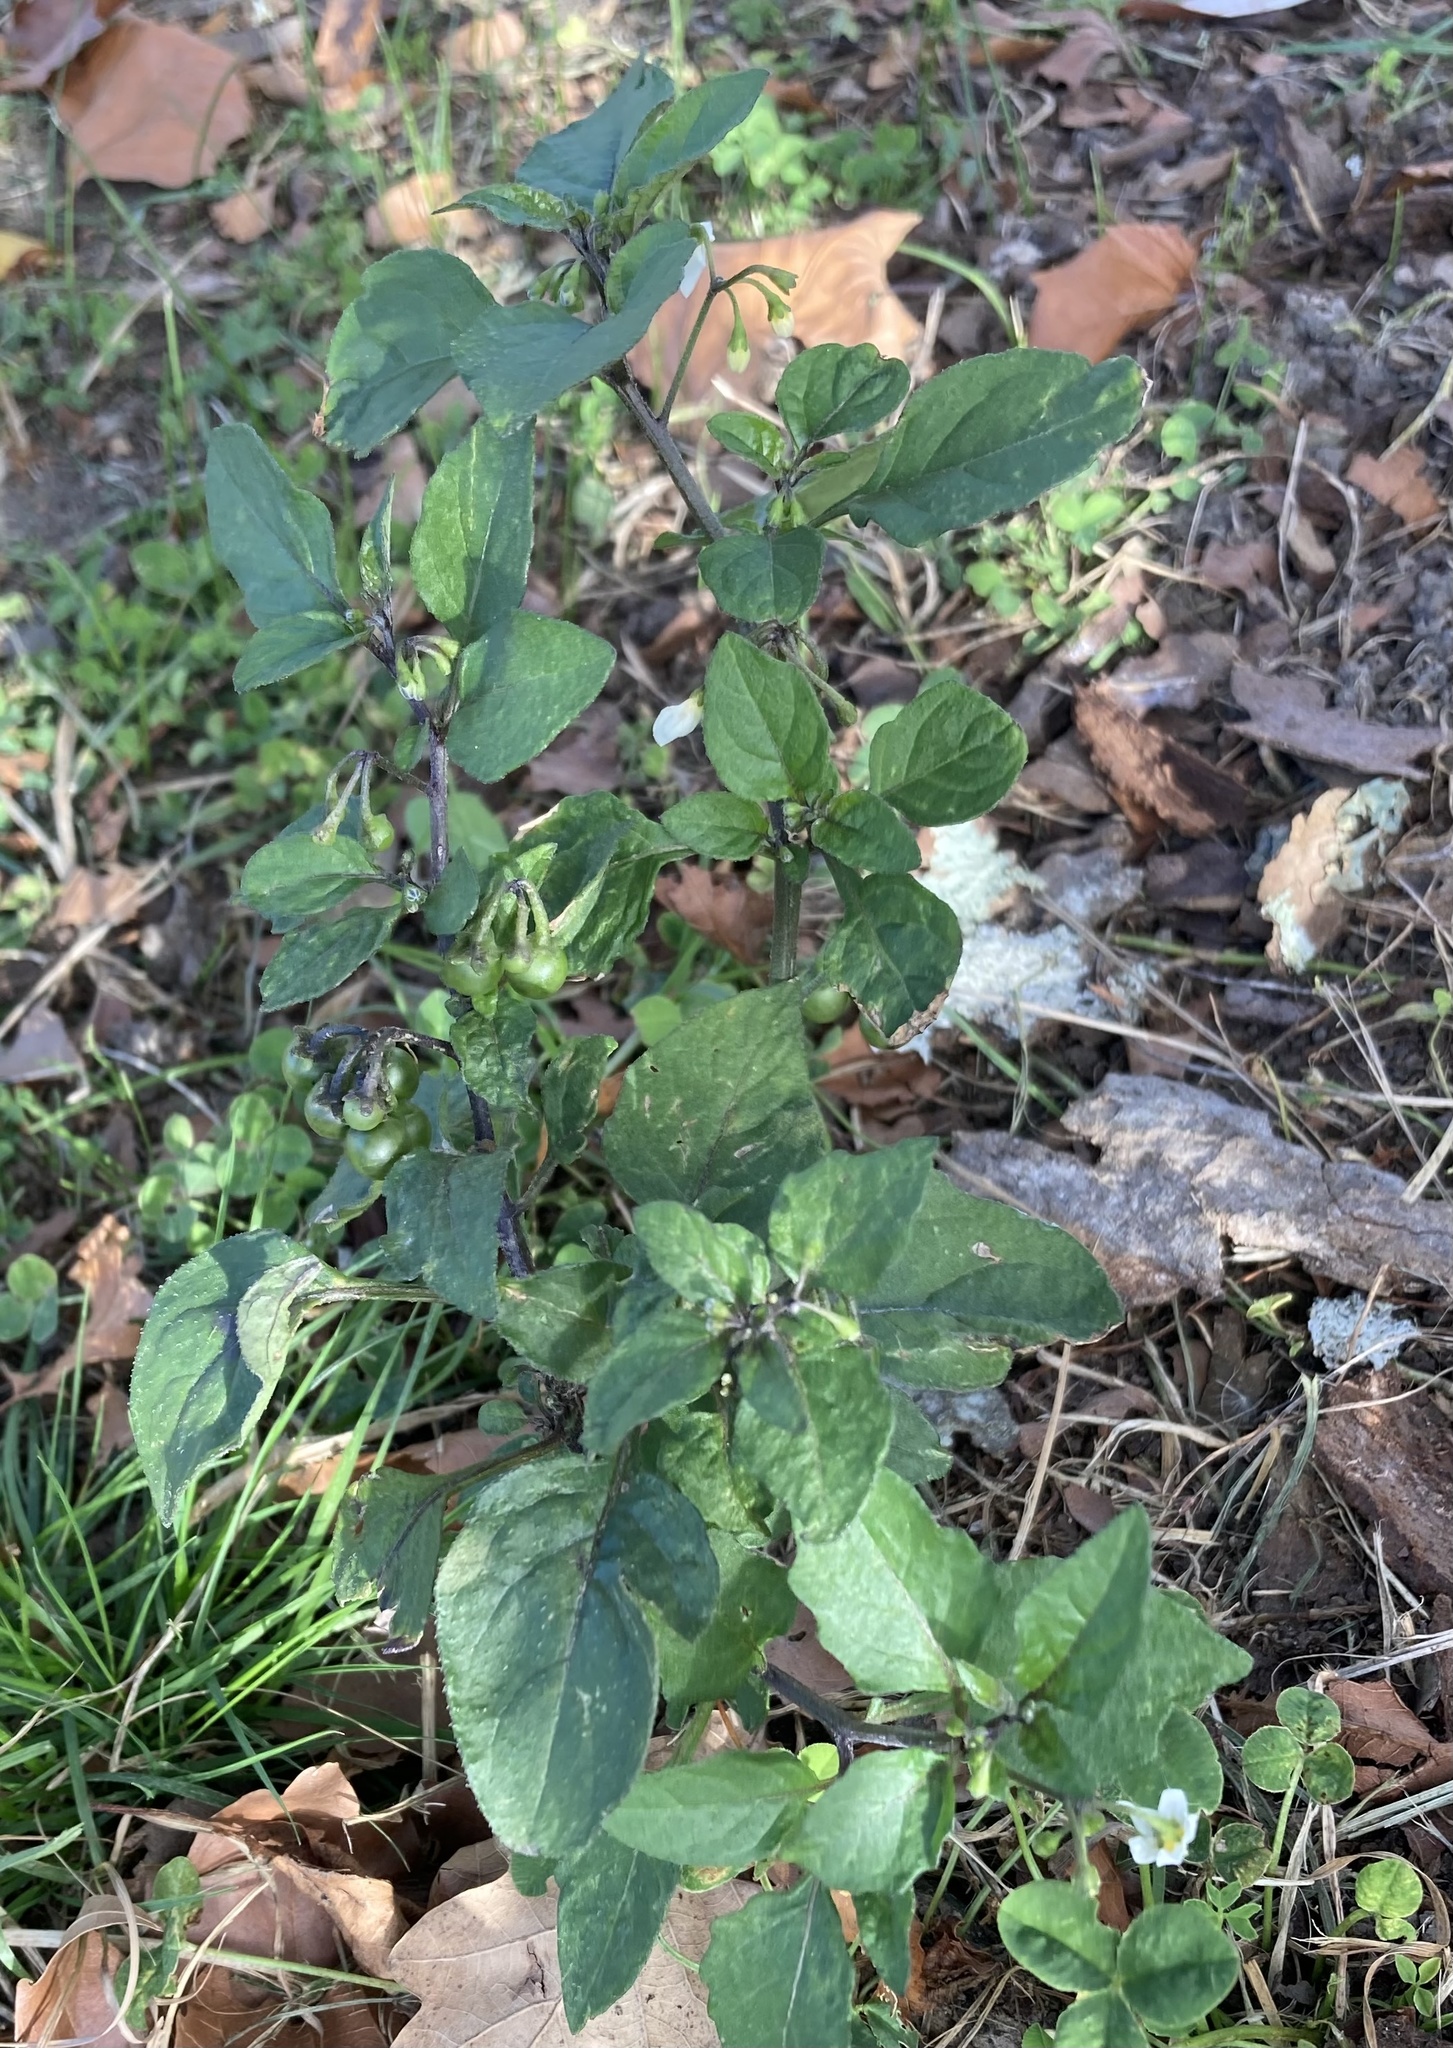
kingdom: Plantae
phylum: Tracheophyta
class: Magnoliopsida
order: Solanales
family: Solanaceae
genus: Solanum
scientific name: Solanum nigrum
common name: Black nightshade
